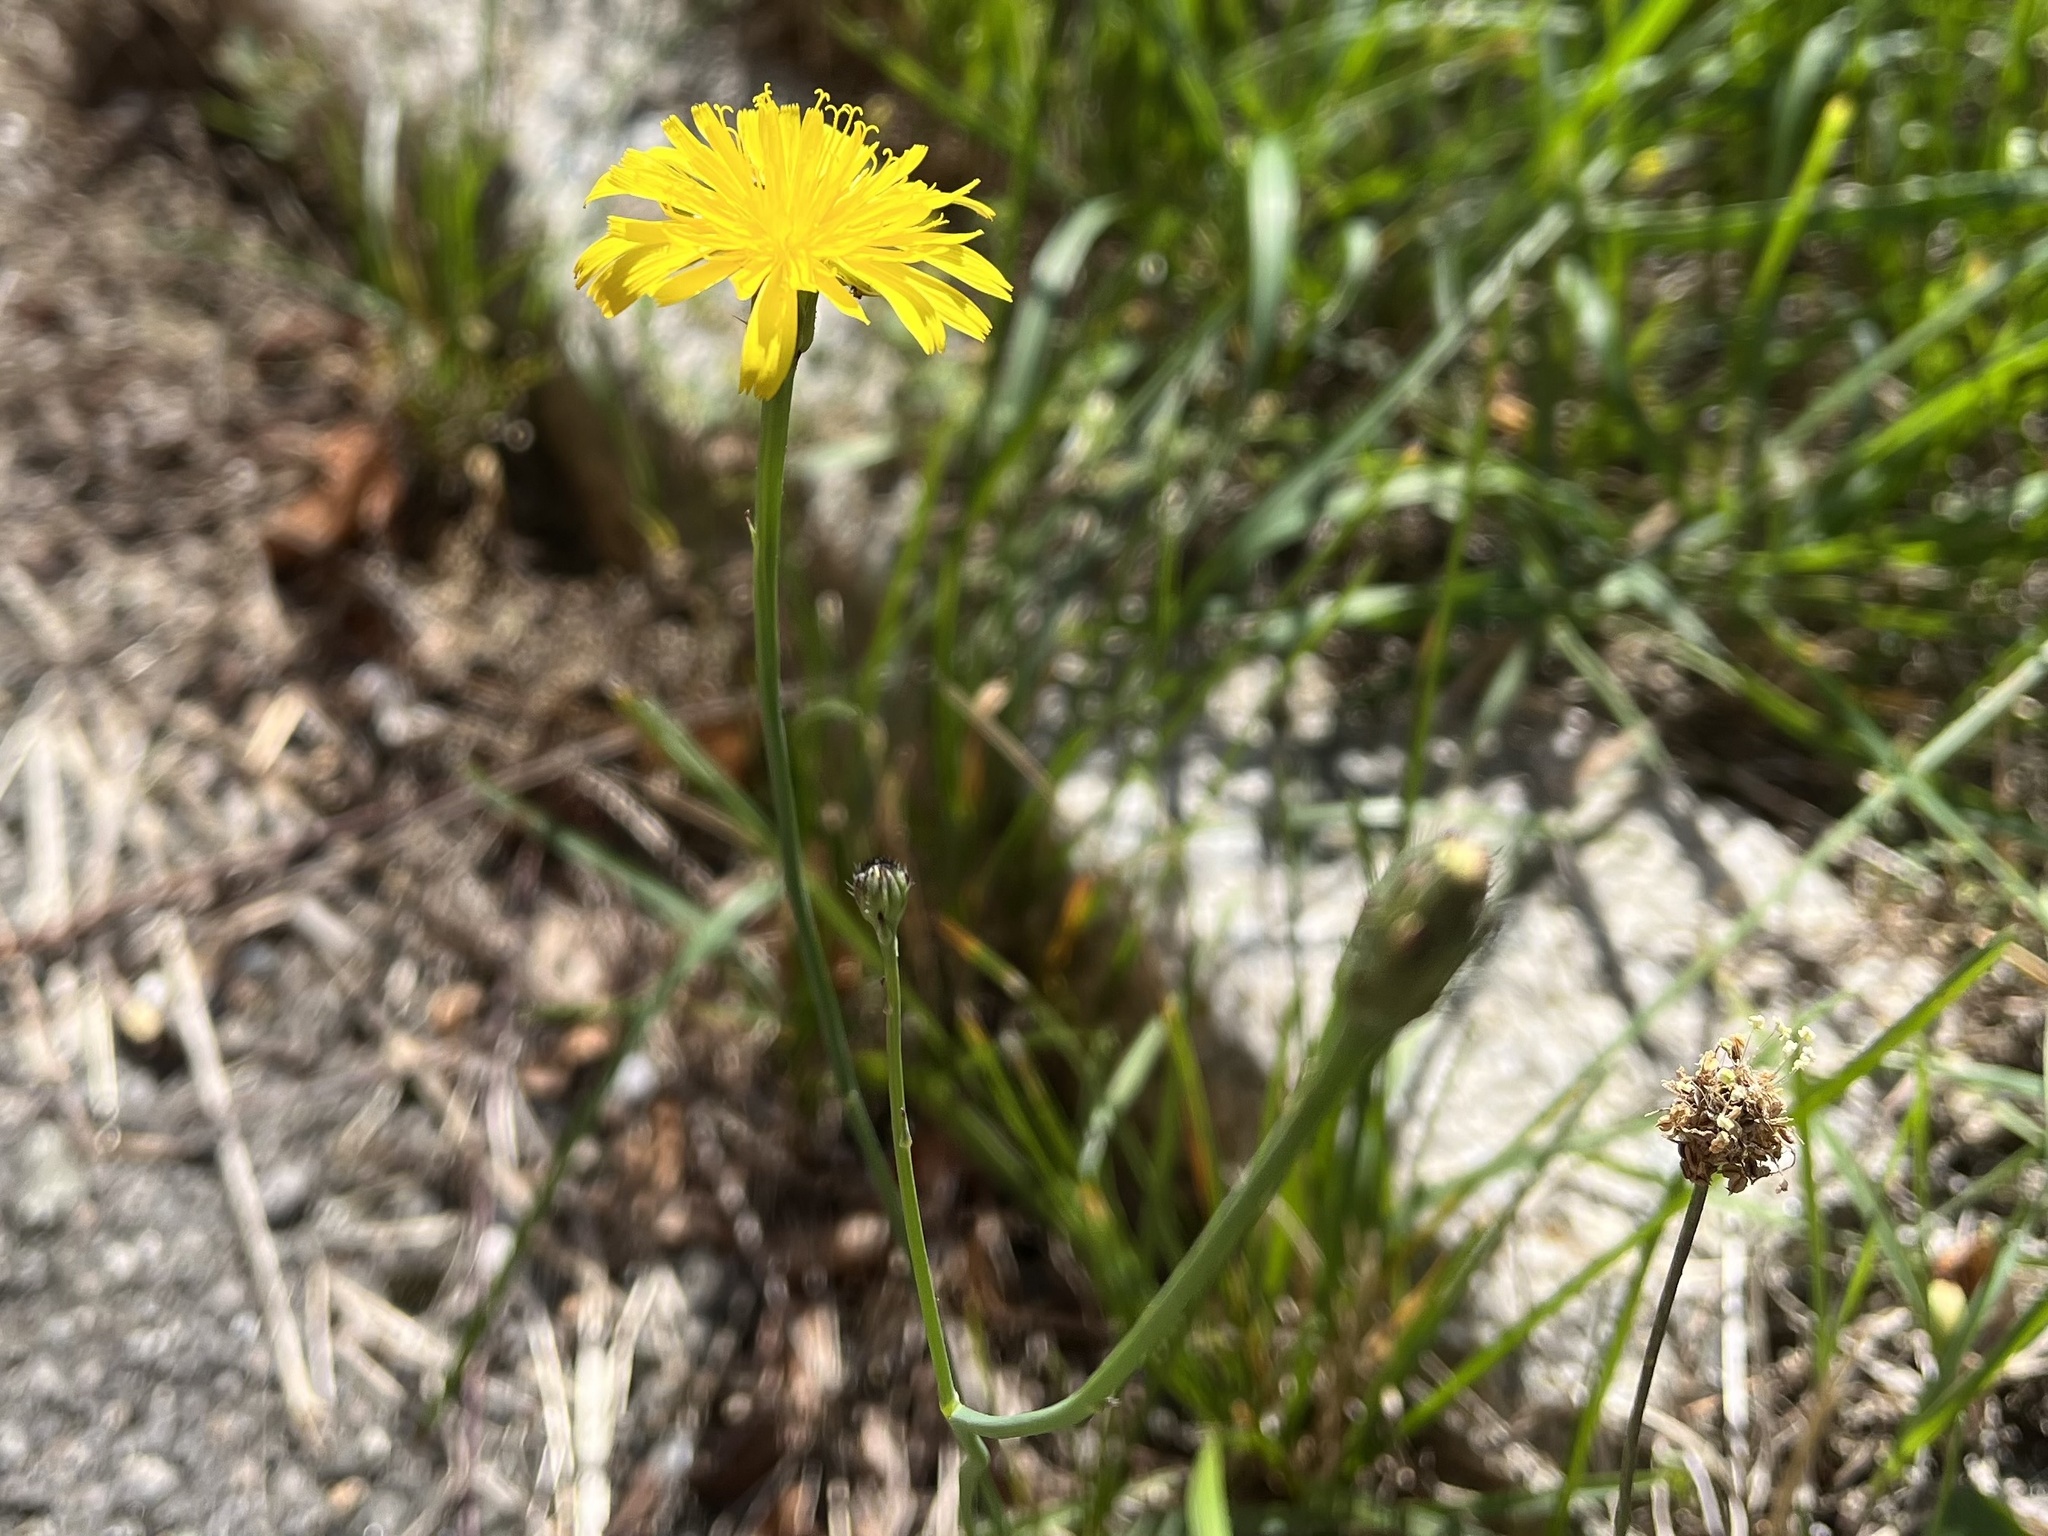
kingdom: Plantae
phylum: Tracheophyta
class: Magnoliopsida
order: Asterales
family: Asteraceae
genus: Hypochaeris
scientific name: Hypochaeris radicata
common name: Flatweed
